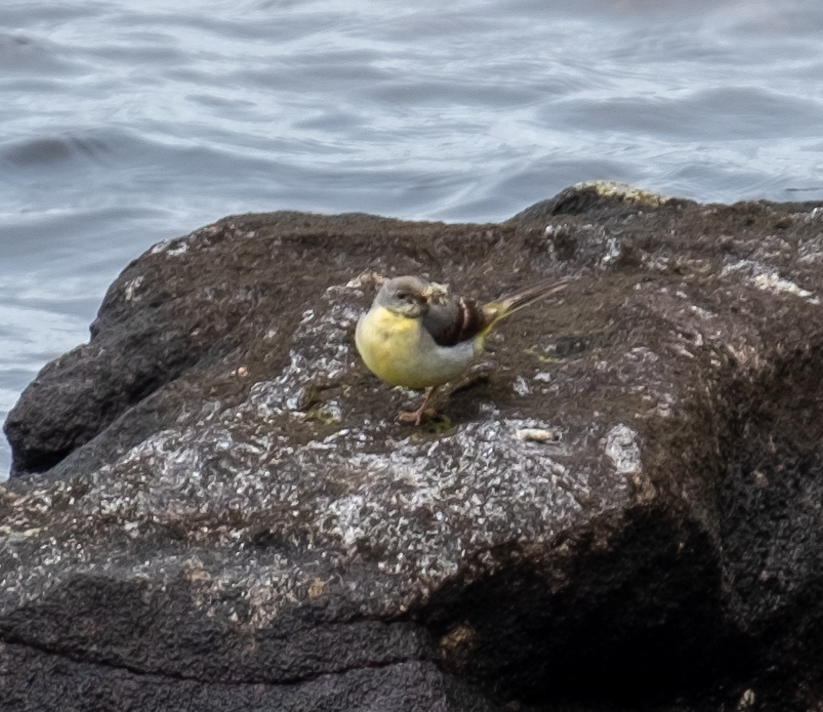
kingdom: Animalia
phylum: Chordata
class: Aves
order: Passeriformes
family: Motacillidae
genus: Motacilla
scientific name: Motacilla cinerea
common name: Grey wagtail
